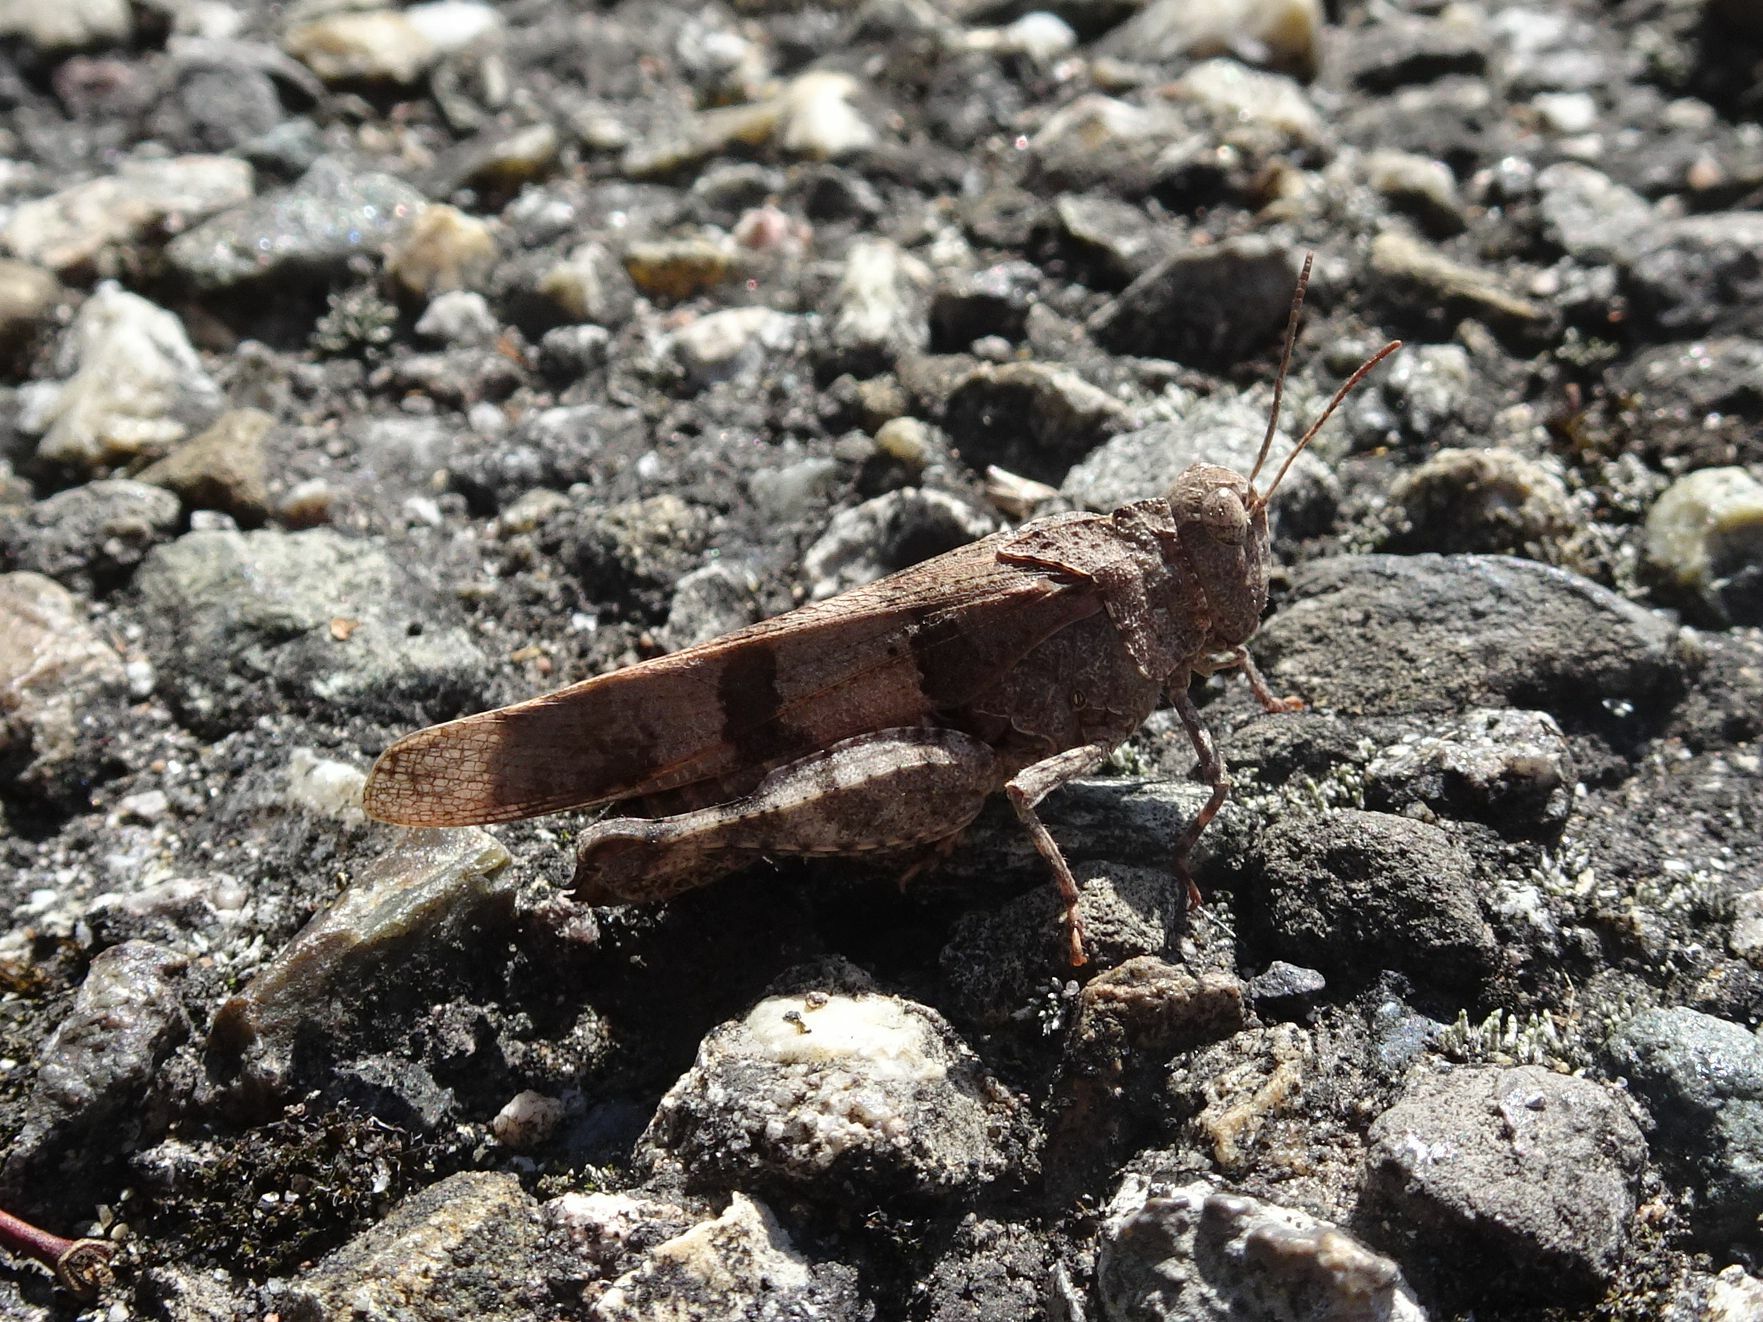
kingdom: Animalia
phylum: Arthropoda
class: Insecta
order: Orthoptera
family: Acrididae
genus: Oedipoda
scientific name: Oedipoda caerulescens
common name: Blue-winged grasshopper
